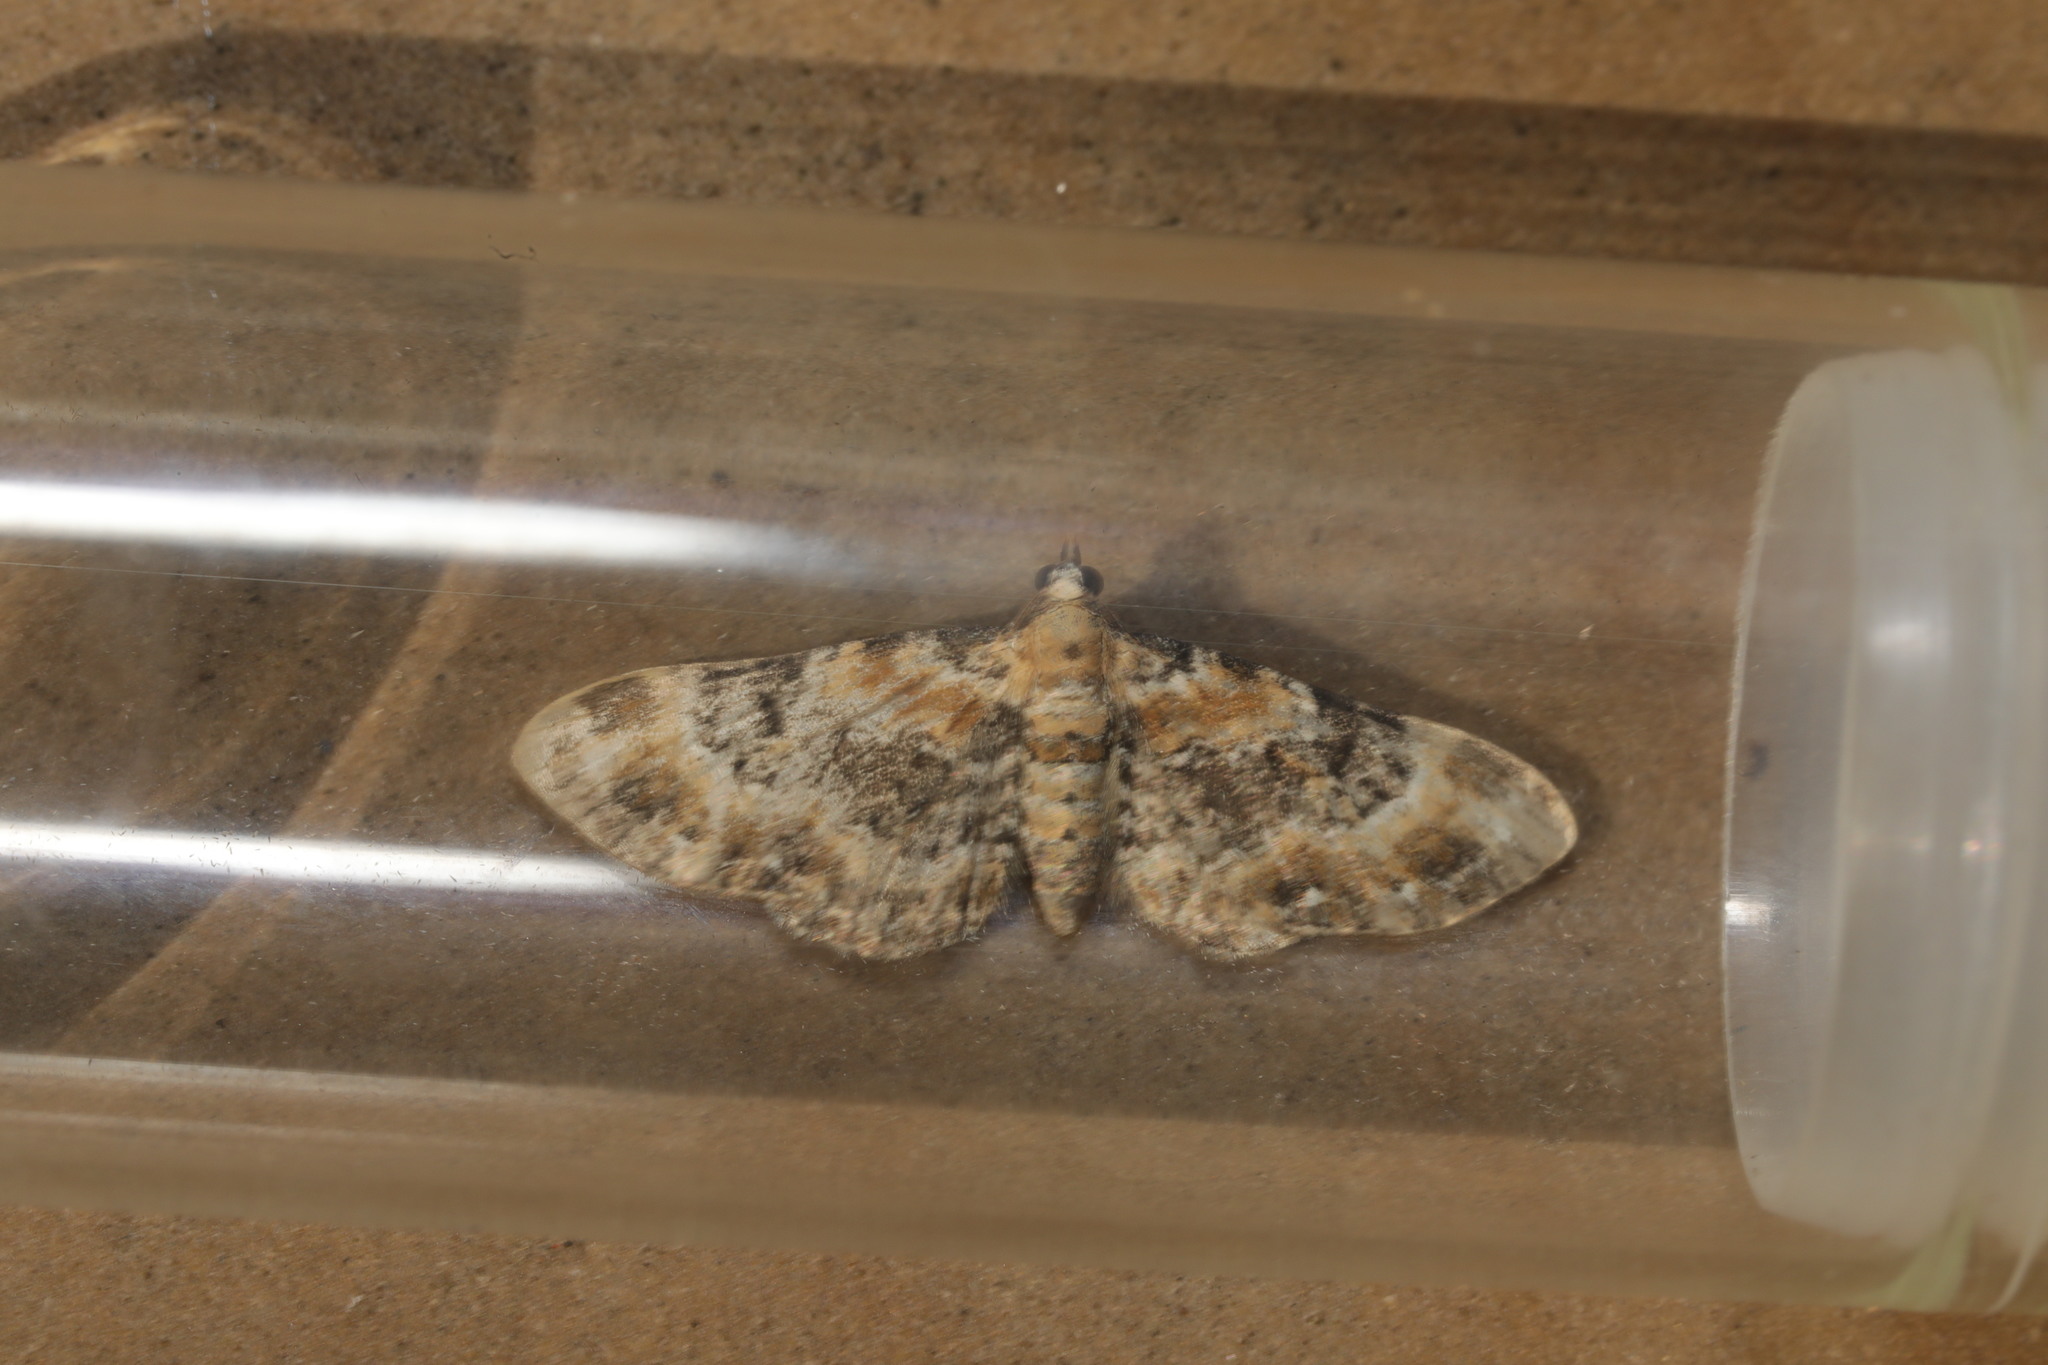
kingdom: Animalia
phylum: Arthropoda
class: Insecta
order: Lepidoptera
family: Geometridae
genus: Eupithecia
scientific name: Eupithecia pulchellata
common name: Foxglove pug
